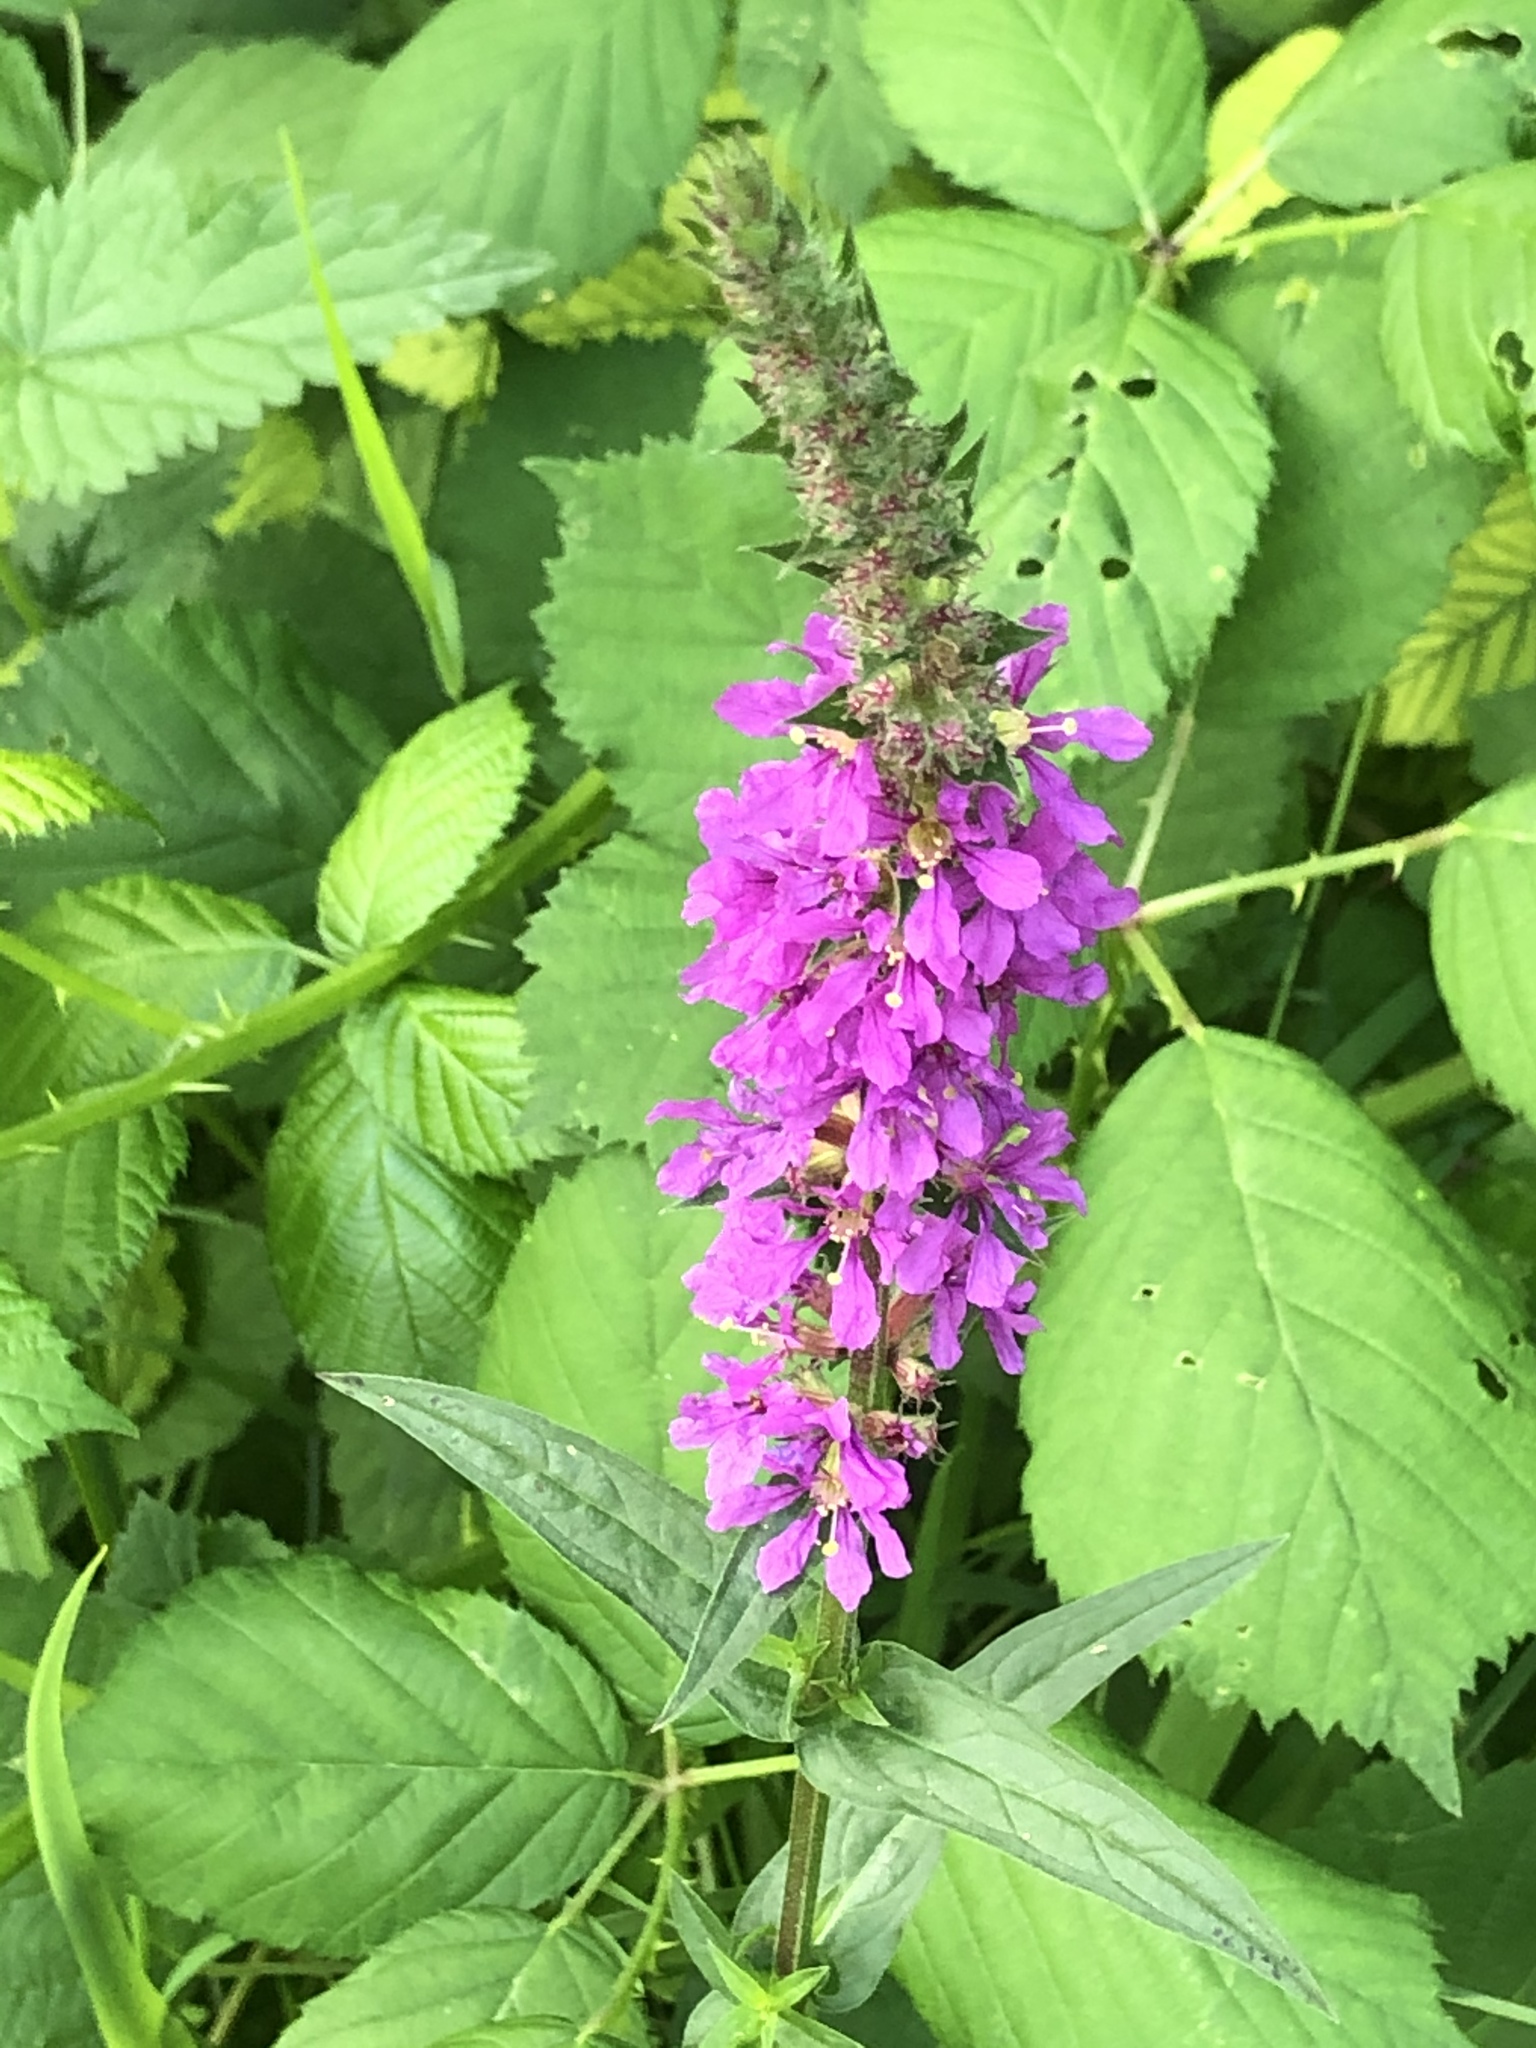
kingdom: Plantae
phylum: Tracheophyta
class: Magnoliopsida
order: Myrtales
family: Lythraceae
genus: Lythrum
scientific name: Lythrum salicaria
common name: Purple loosestrife
